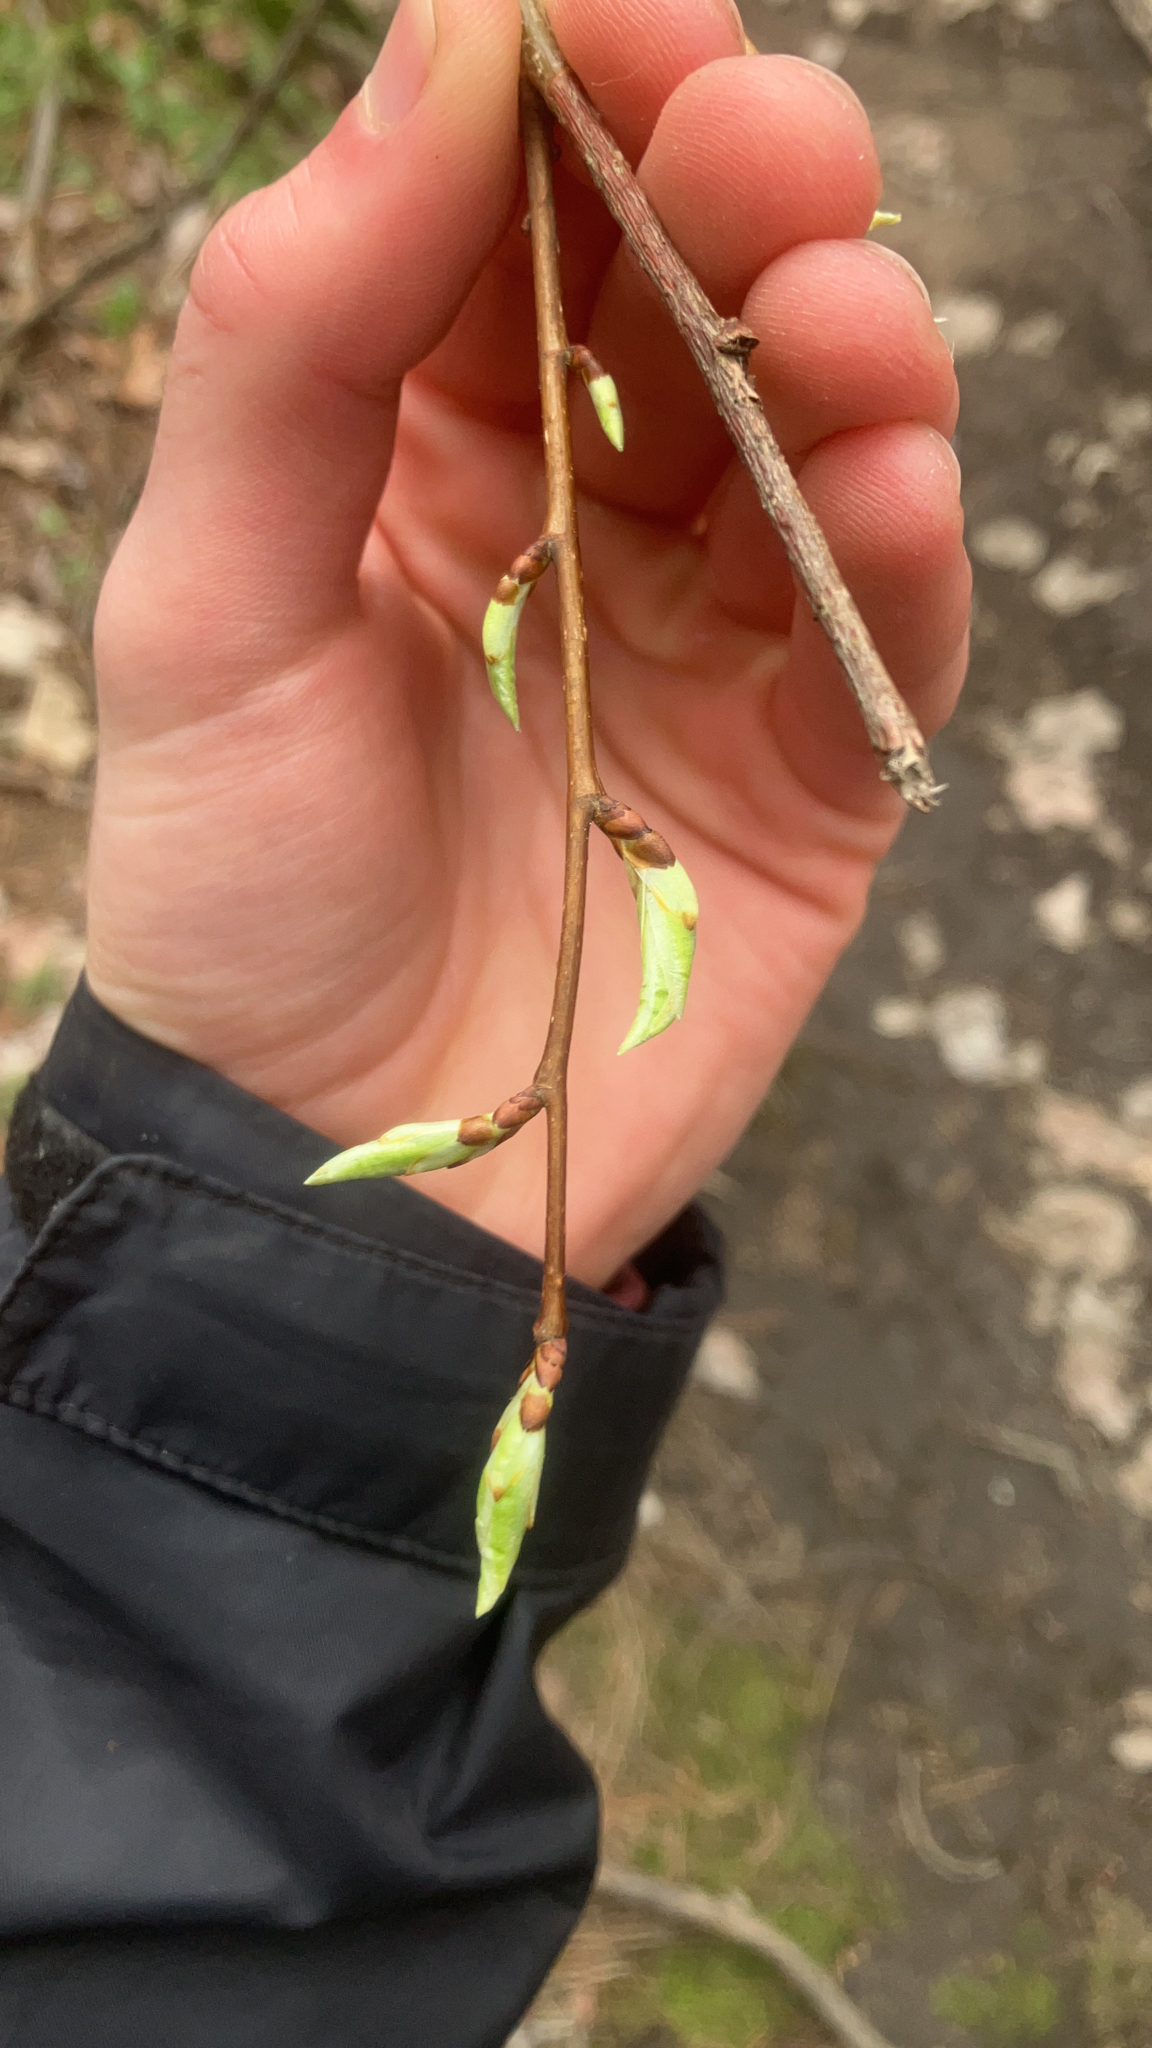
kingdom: Plantae
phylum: Tracheophyta
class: Magnoliopsida
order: Fagales
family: Fagaceae
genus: Fagus
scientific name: Fagus grandifolia
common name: American beech
